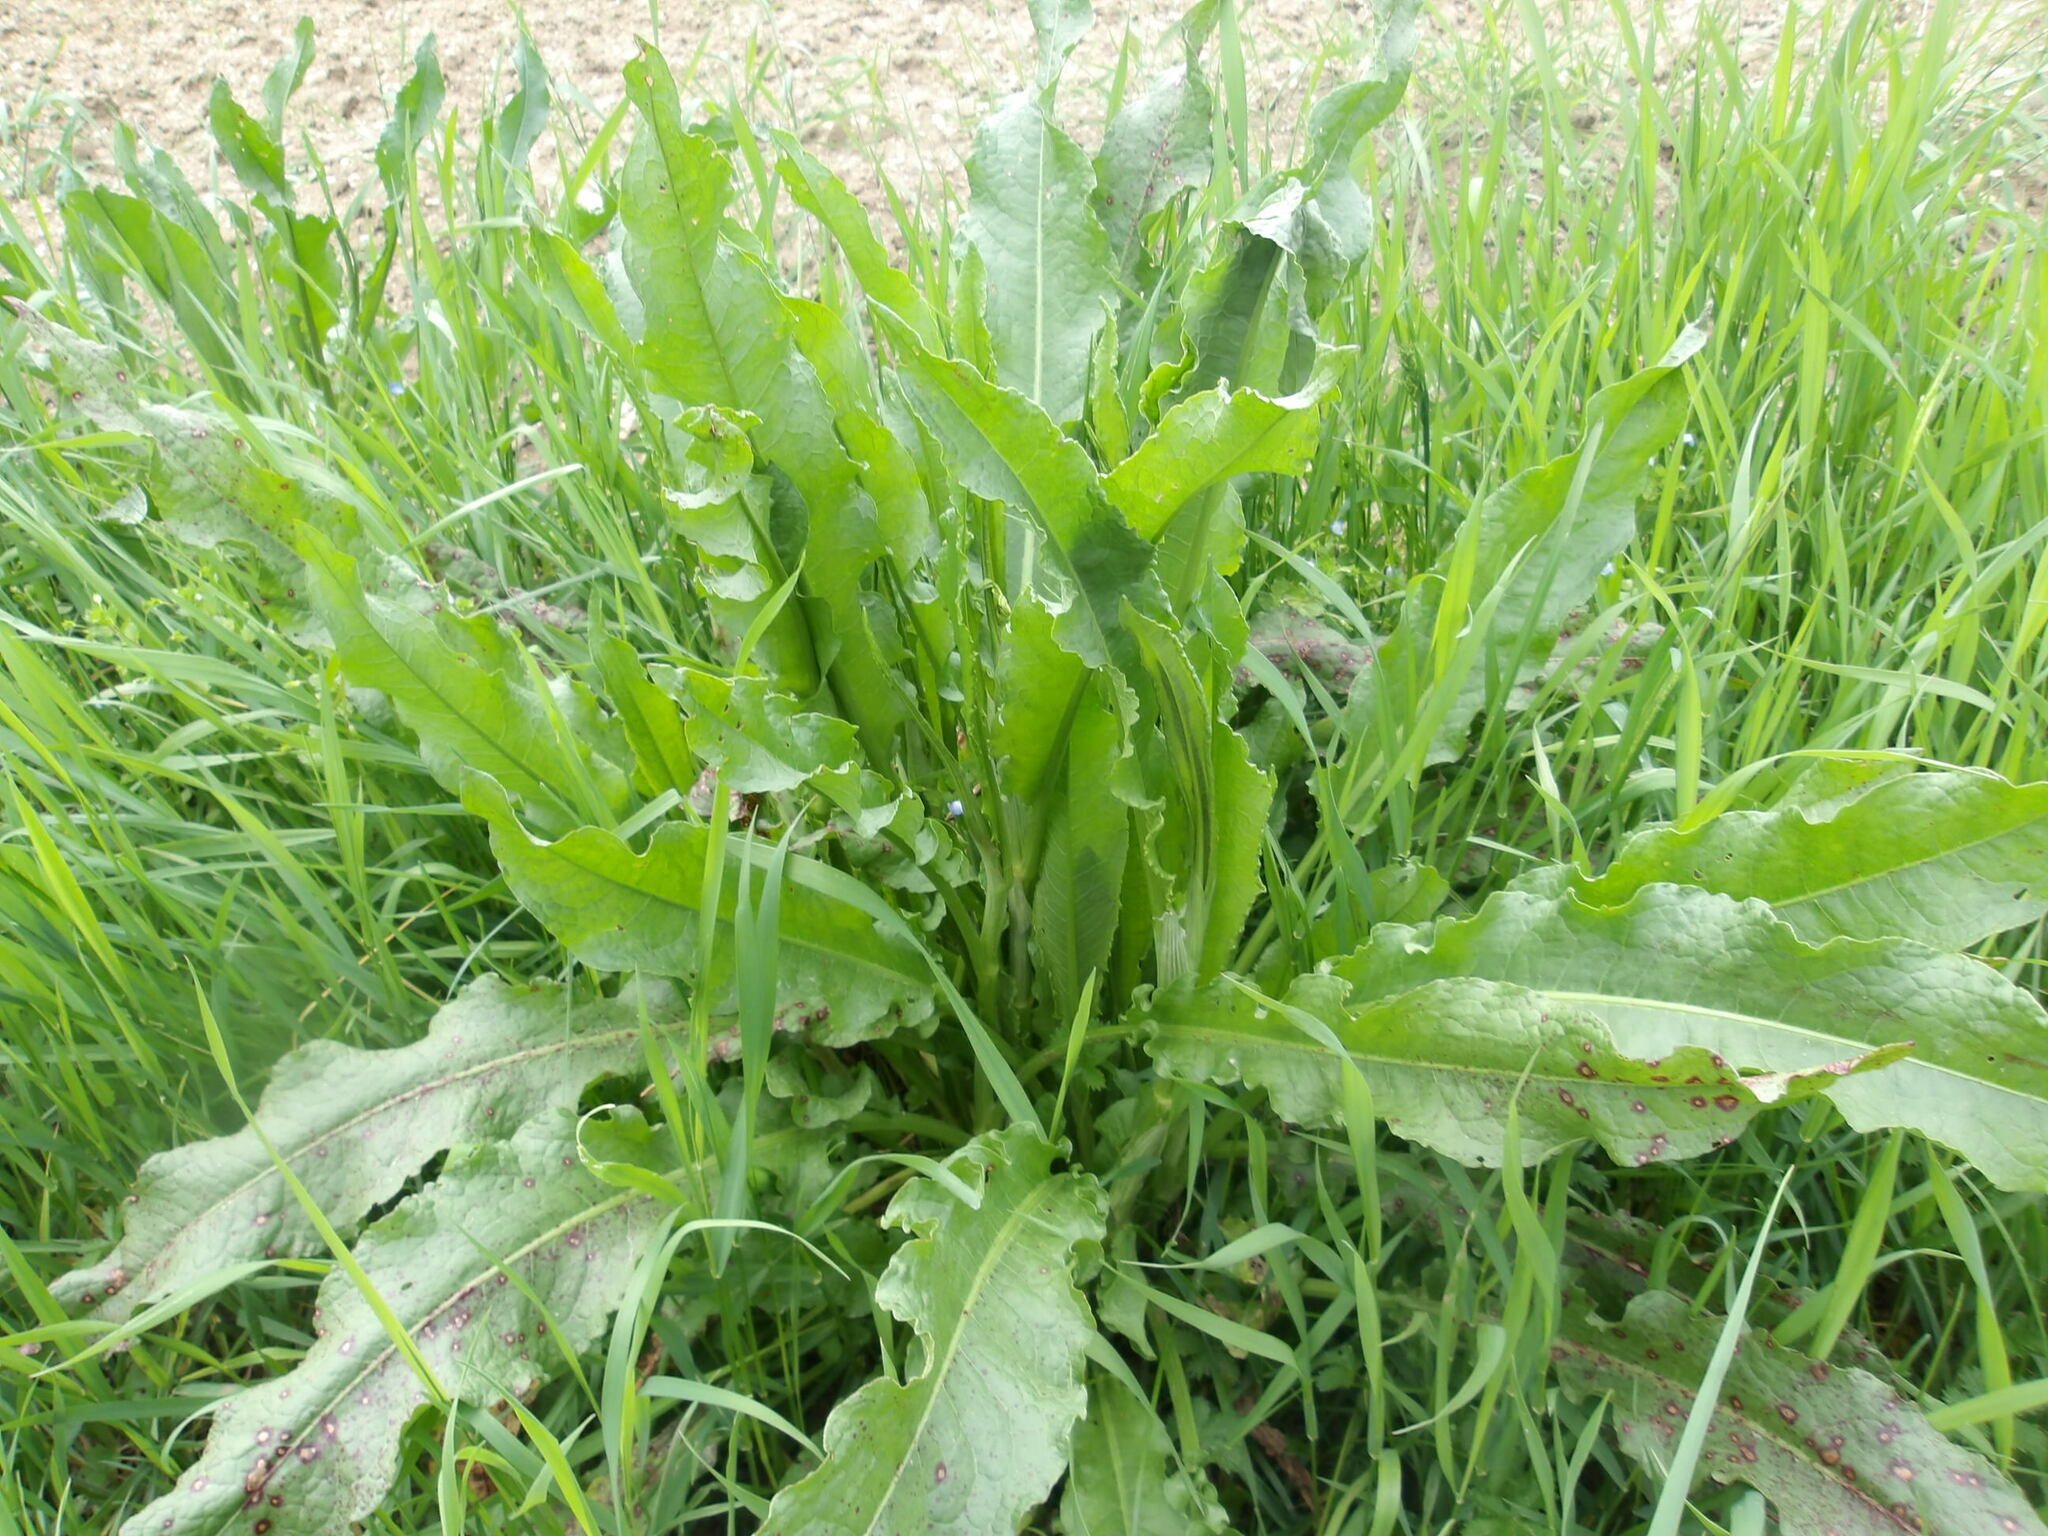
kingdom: Plantae
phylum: Tracheophyta
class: Magnoliopsida
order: Caryophyllales
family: Polygonaceae
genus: Rumex
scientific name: Rumex crispus
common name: Curled dock
